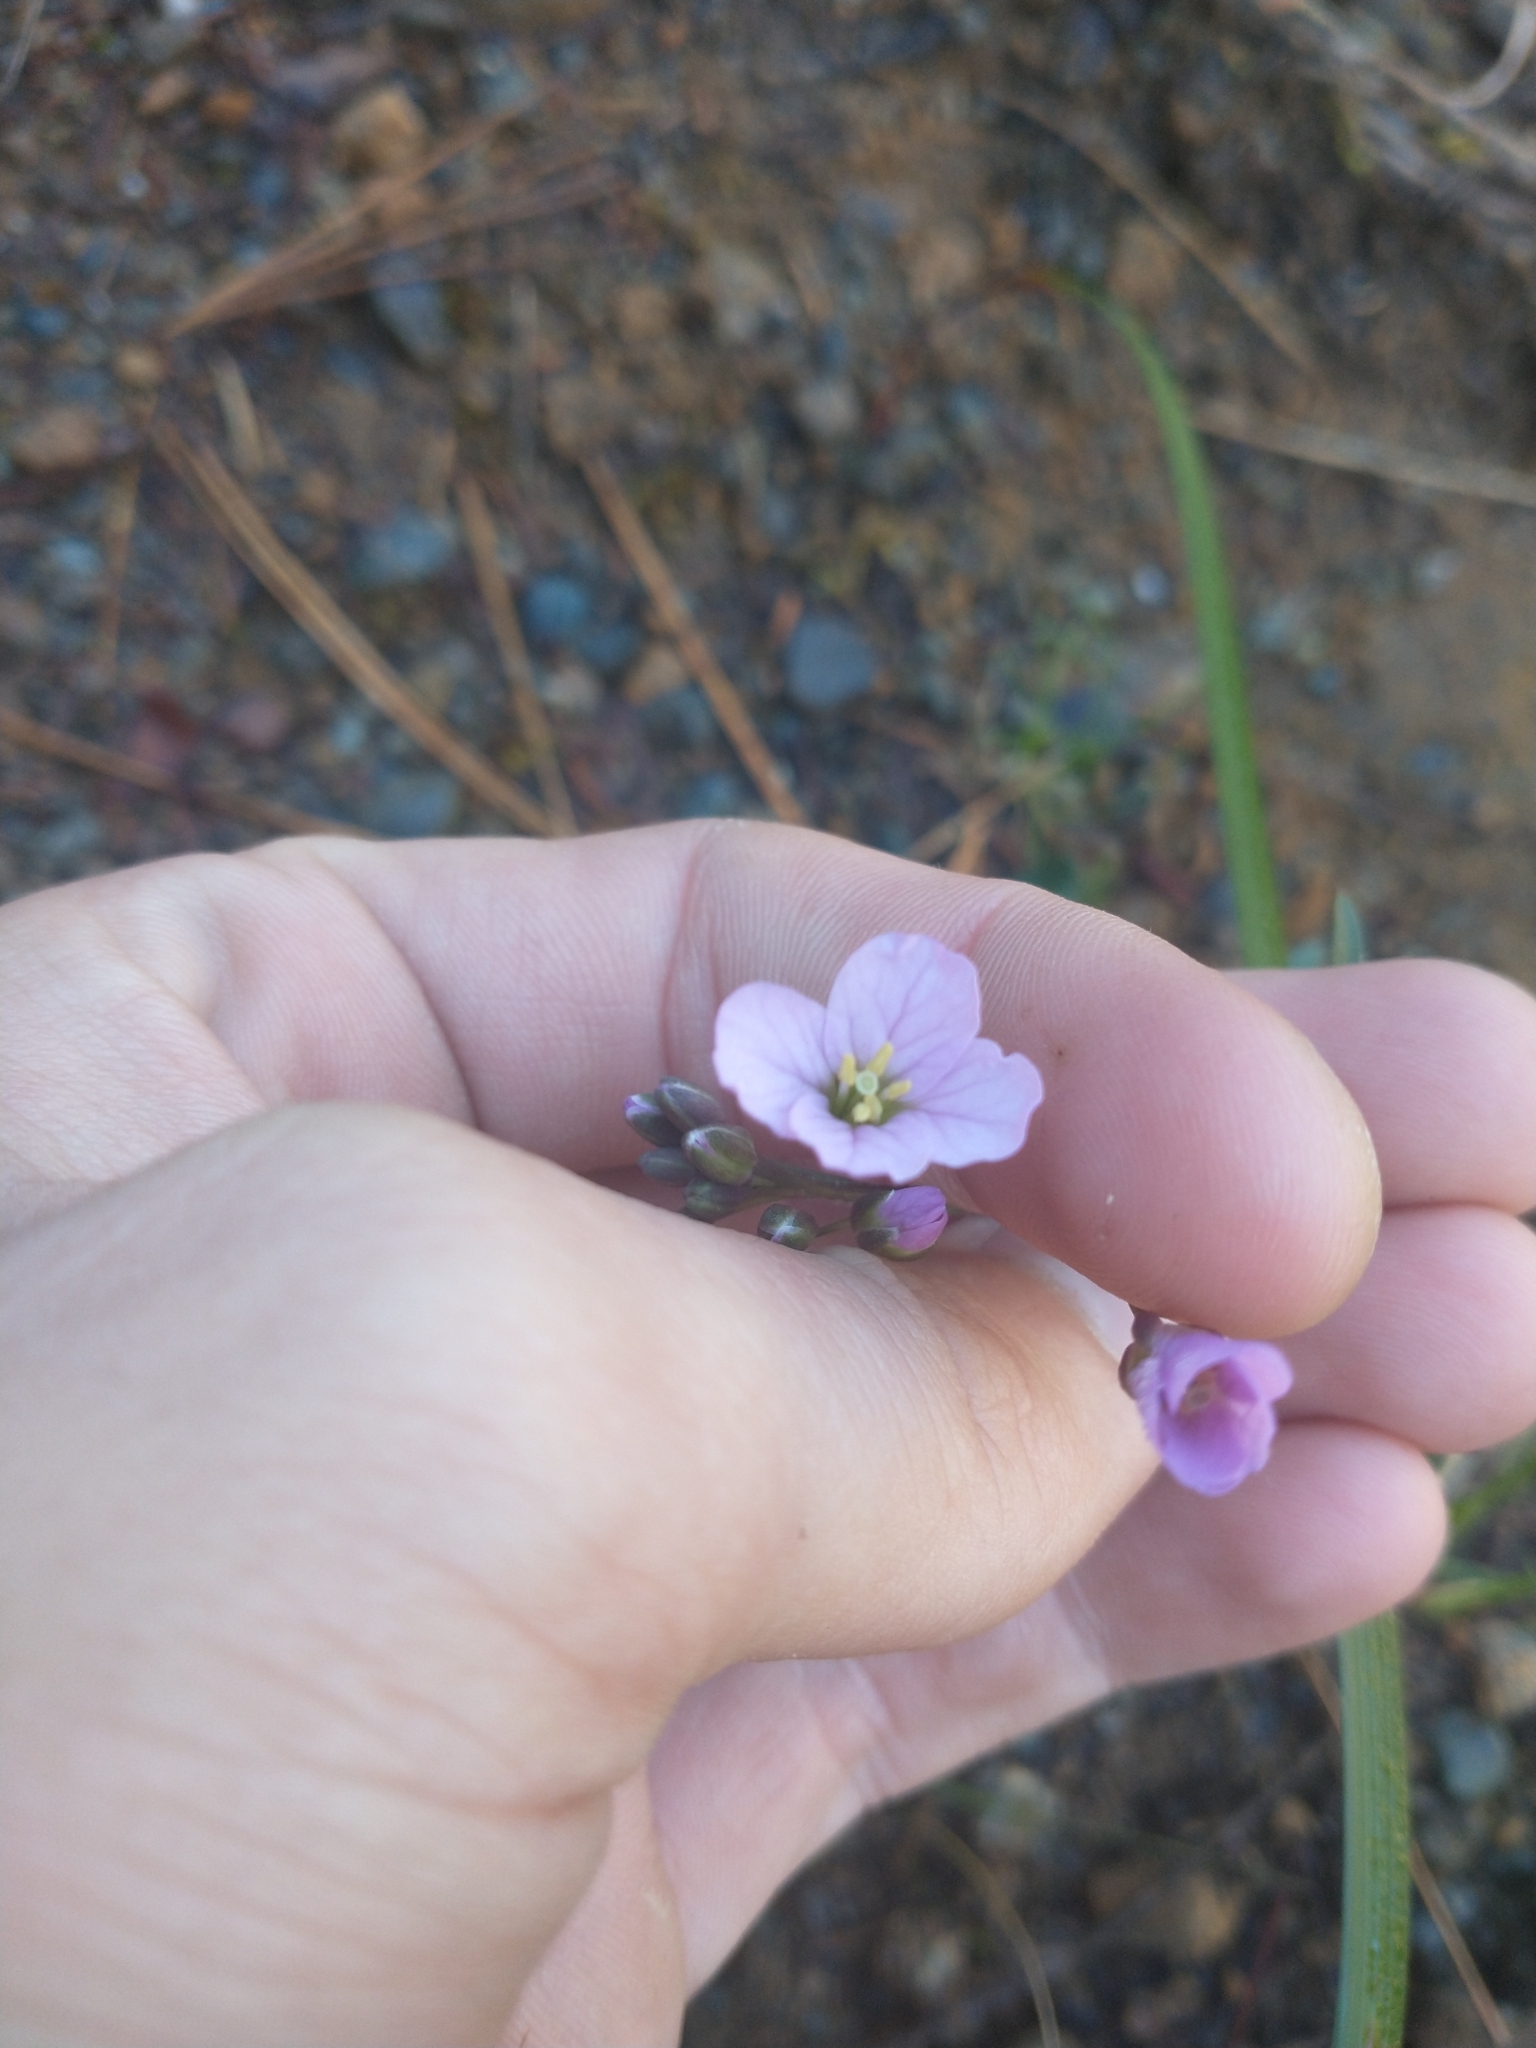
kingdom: Plantae
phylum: Tracheophyta
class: Magnoliopsida
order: Brassicales
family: Brassicaceae
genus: Cardamine
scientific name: Cardamine nuttallii
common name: Nuttall's toothwort
